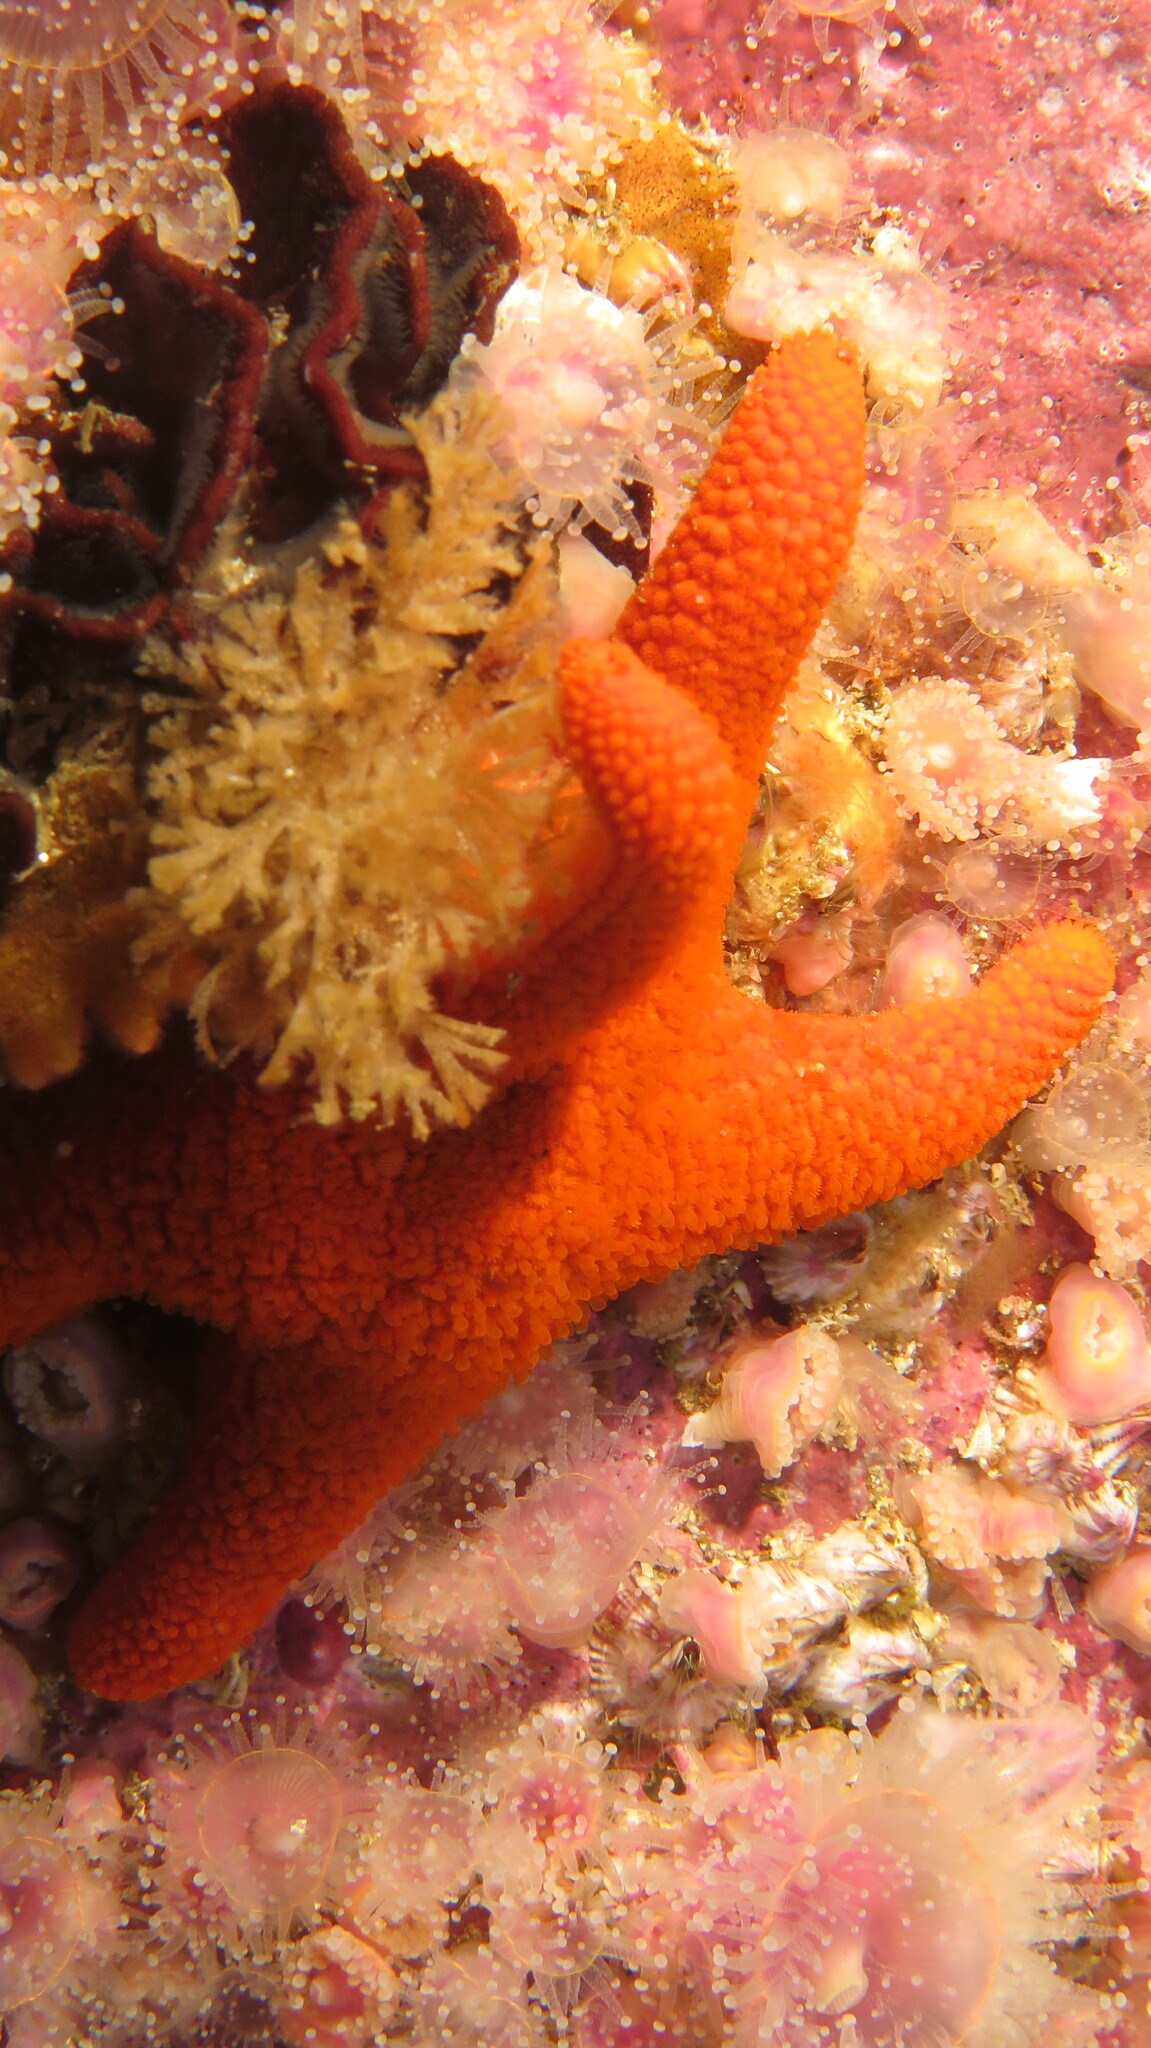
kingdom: Animalia
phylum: Echinodermata
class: Asteroidea
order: Spinulosida
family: Echinasteridae
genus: Henricia
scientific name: Henricia ornata
